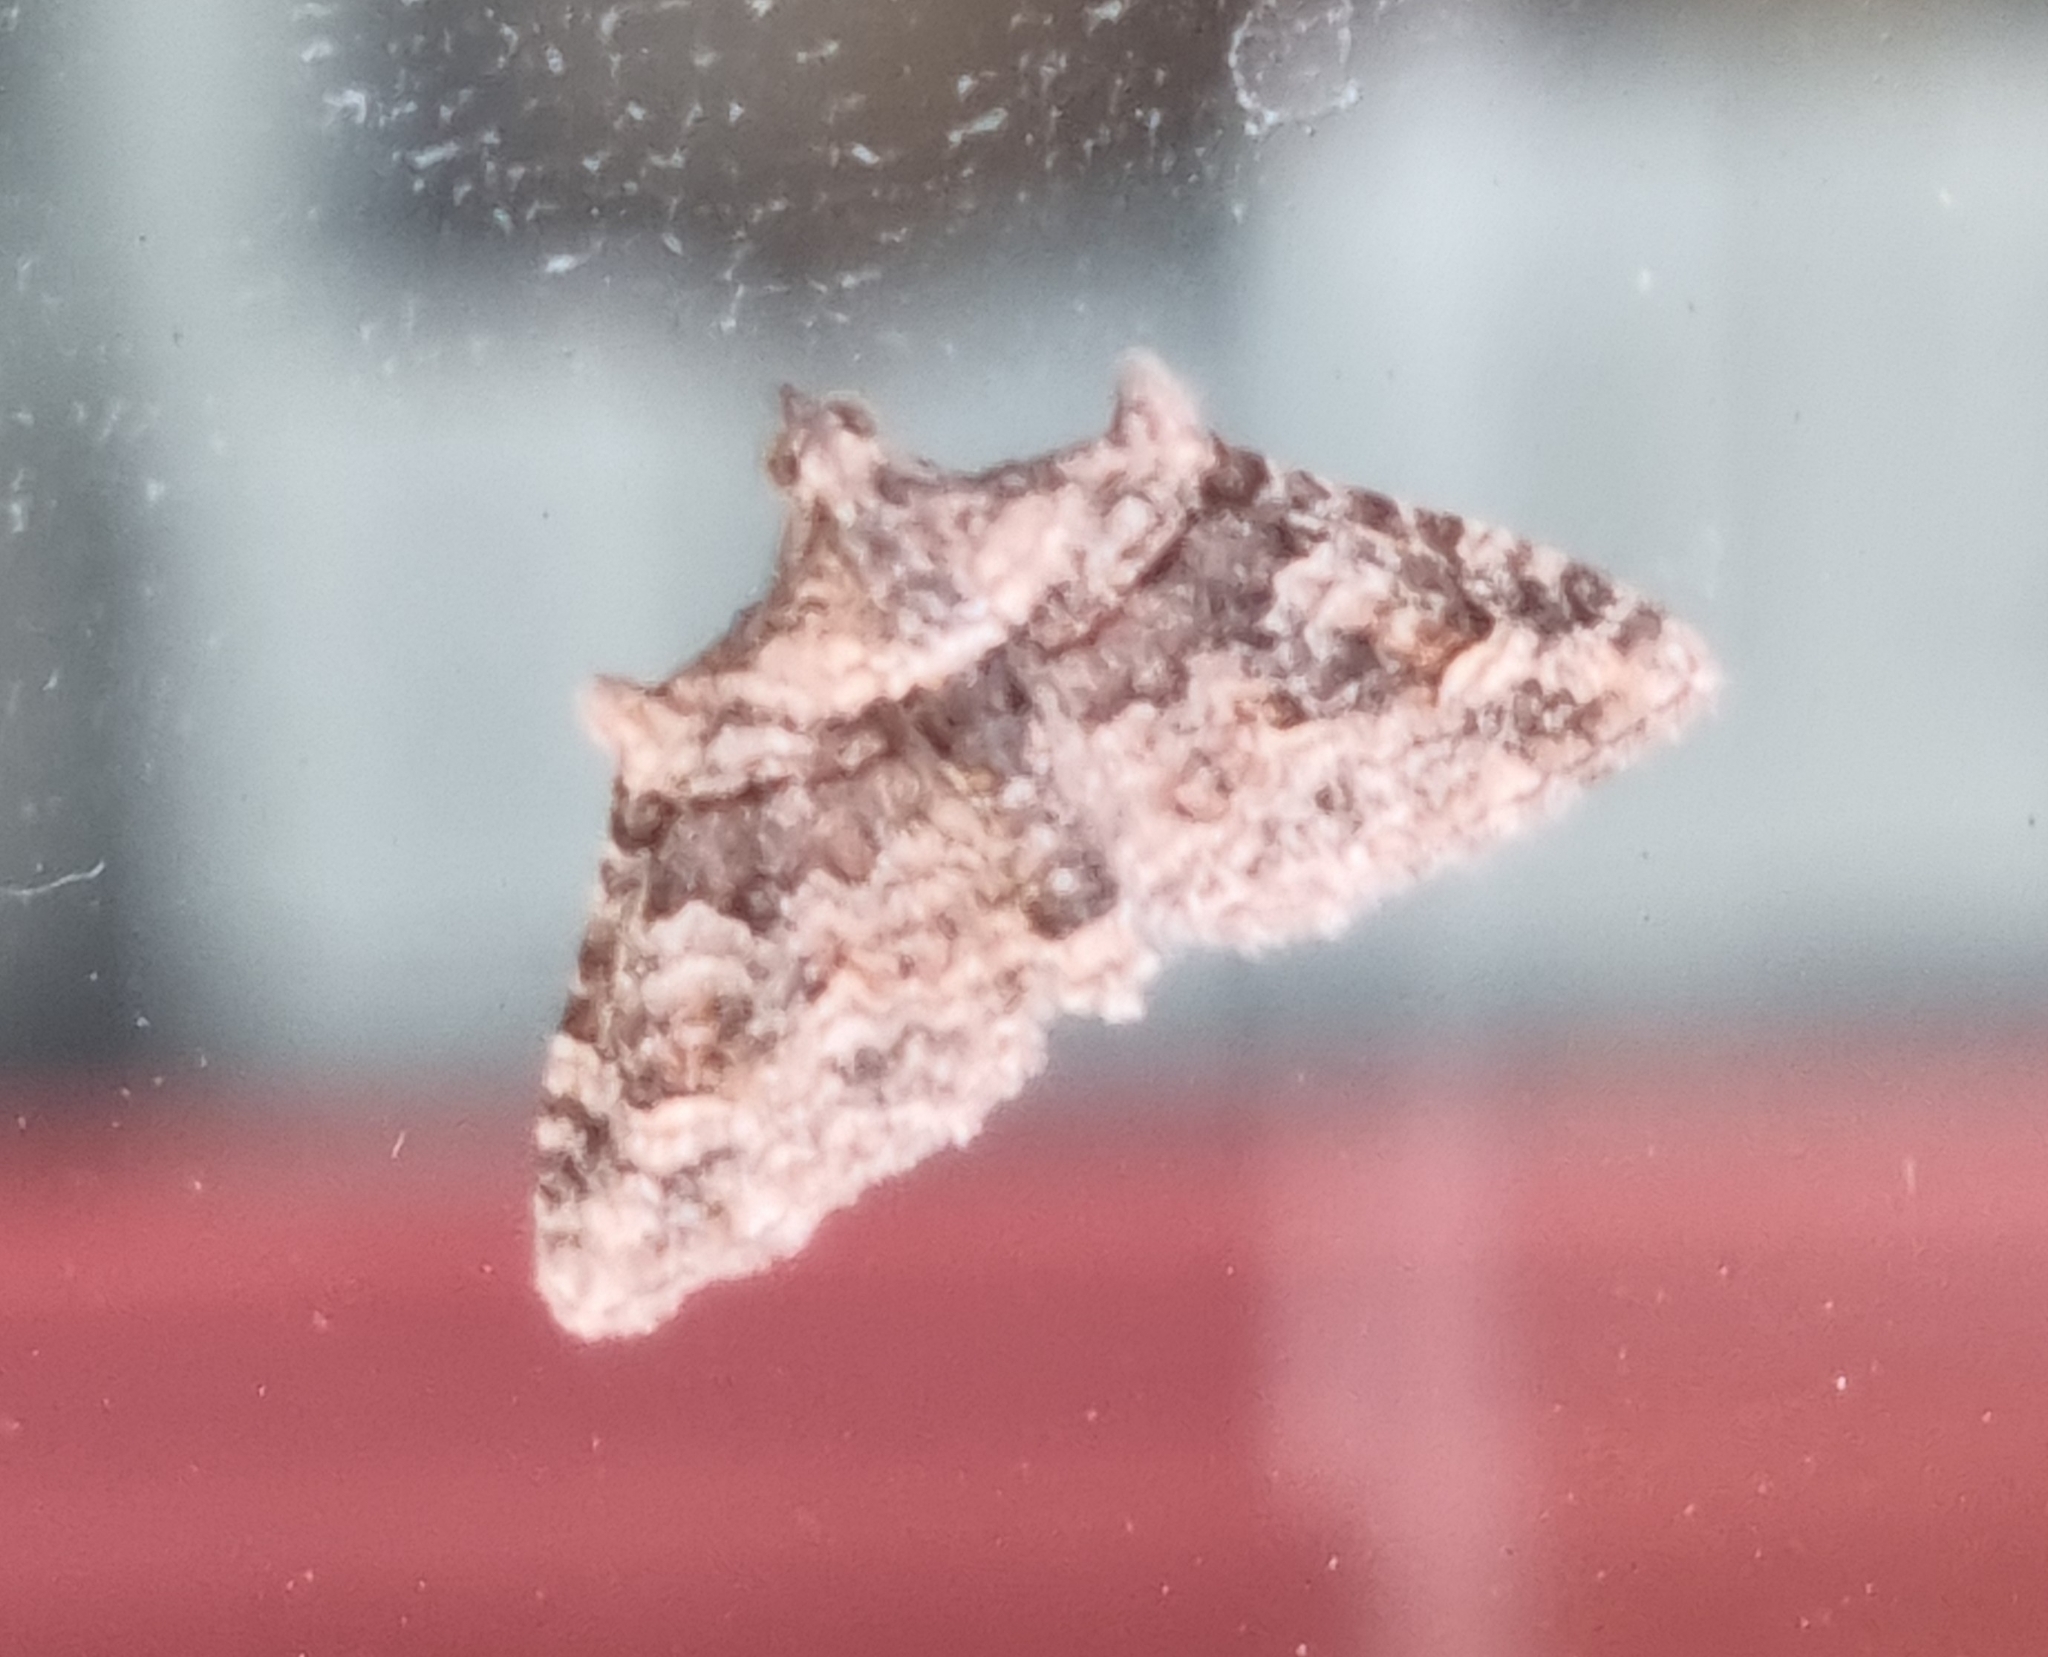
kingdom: Animalia
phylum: Arthropoda
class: Insecta
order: Lepidoptera
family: Geometridae
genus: Phrissogonus
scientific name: Phrissogonus laticostata
